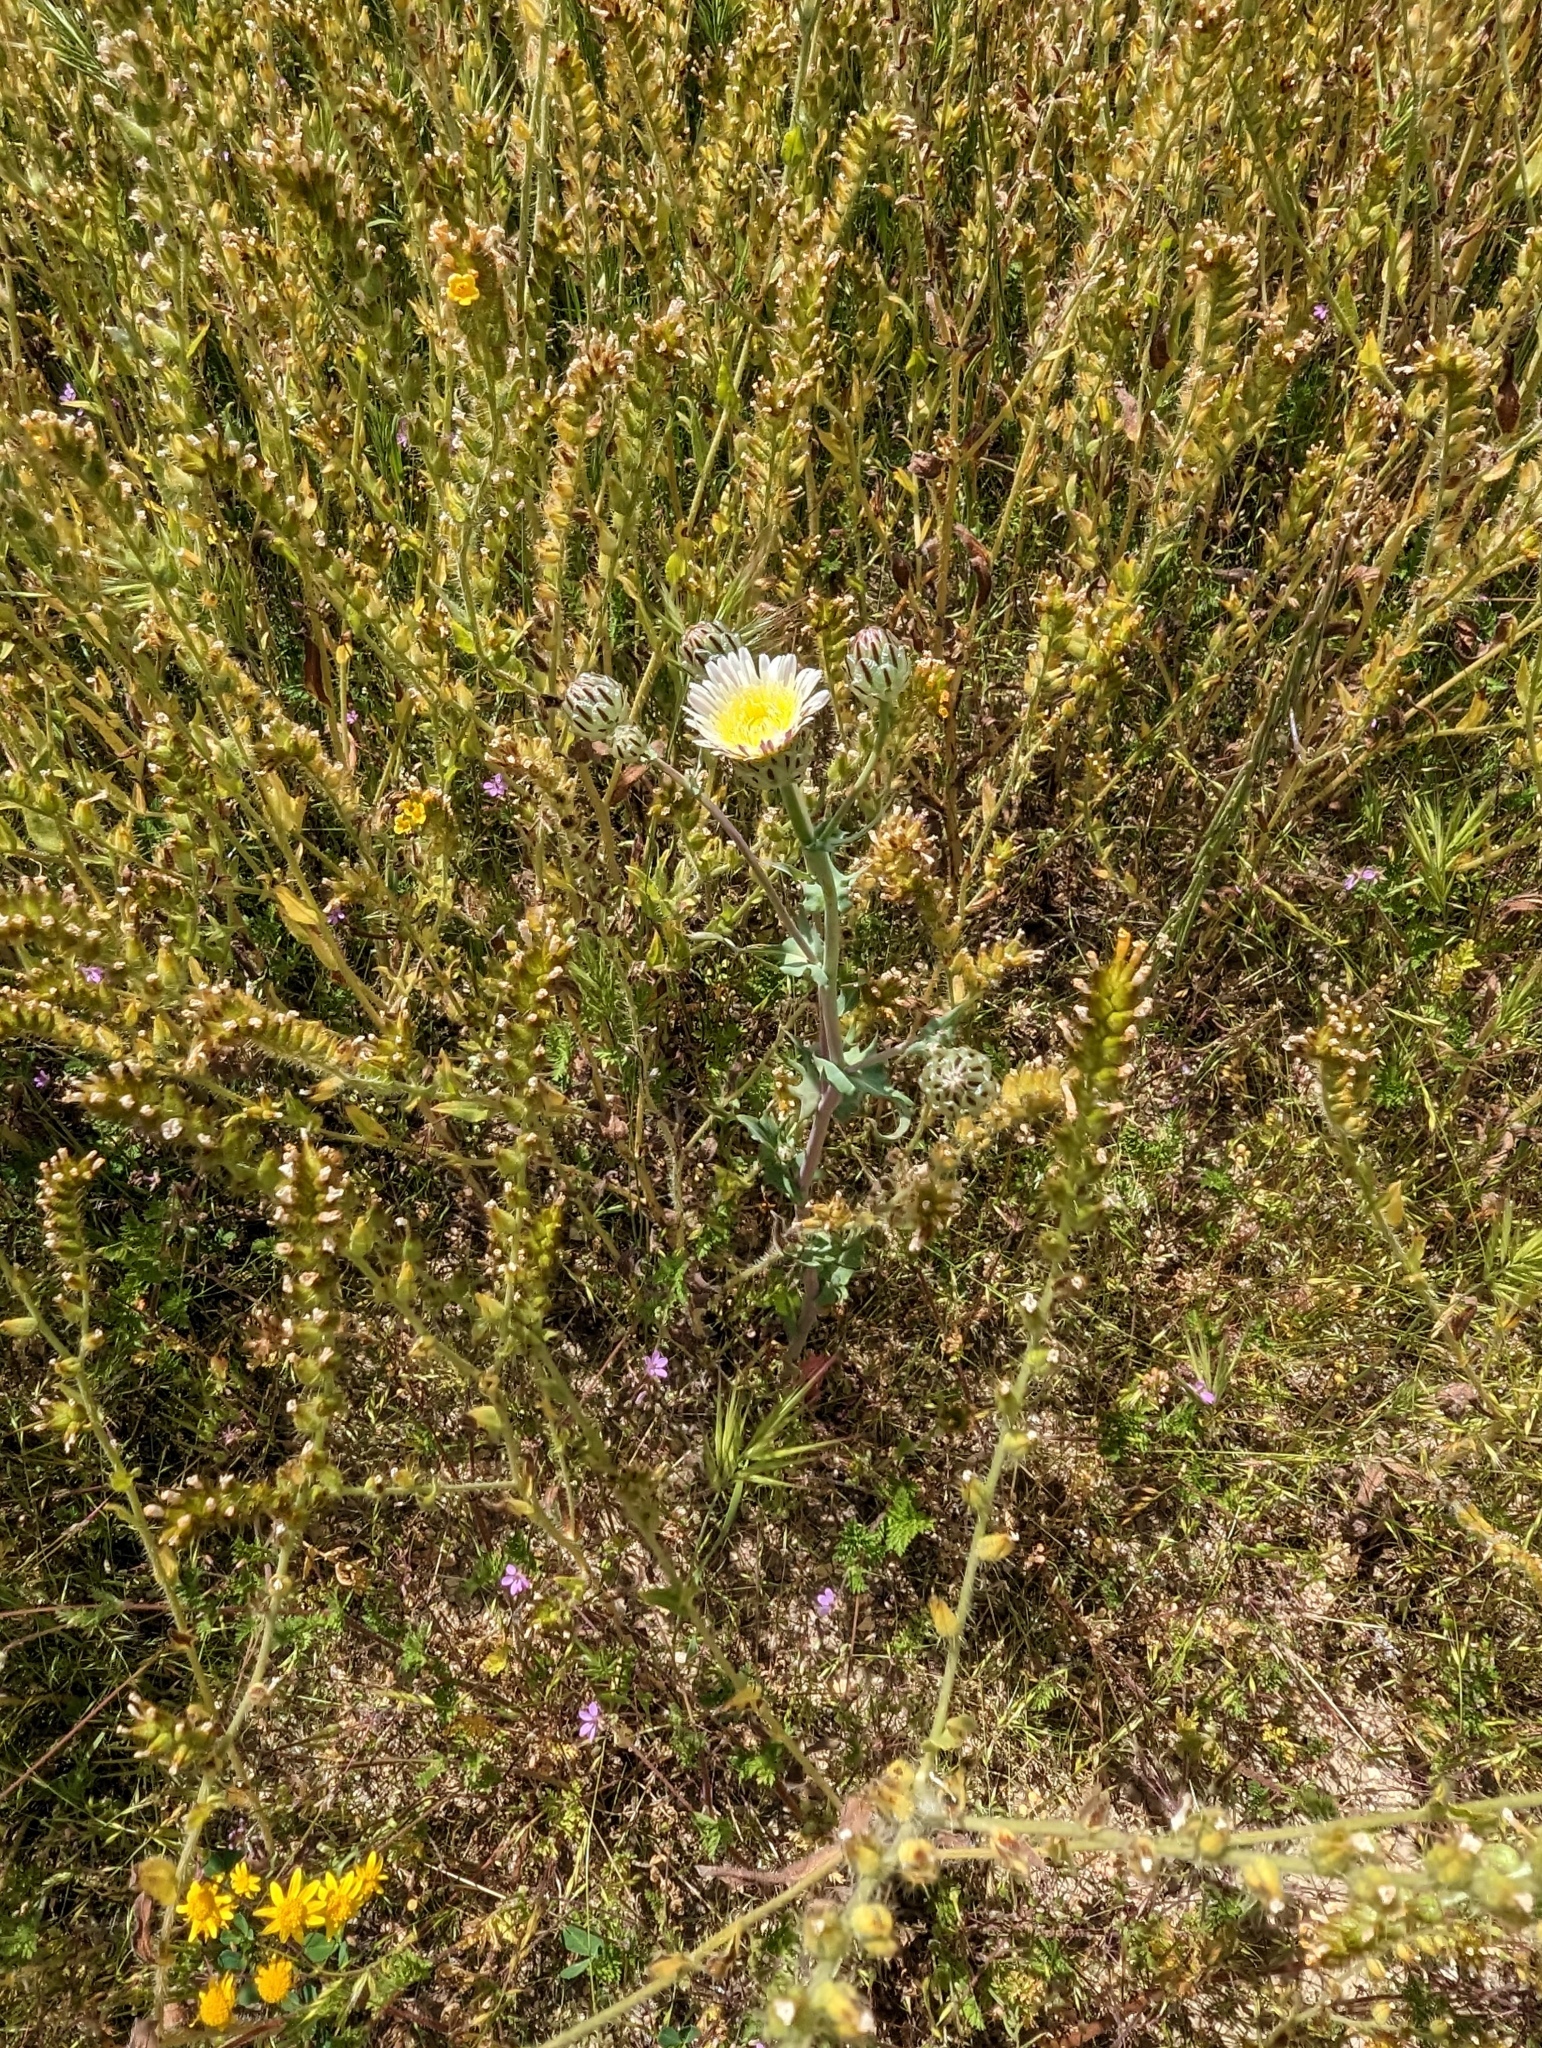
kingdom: Plantae
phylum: Tracheophyta
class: Magnoliopsida
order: Asterales
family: Asteraceae
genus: Malacothrix
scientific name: Malacothrix coulteri
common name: Snake's-head
